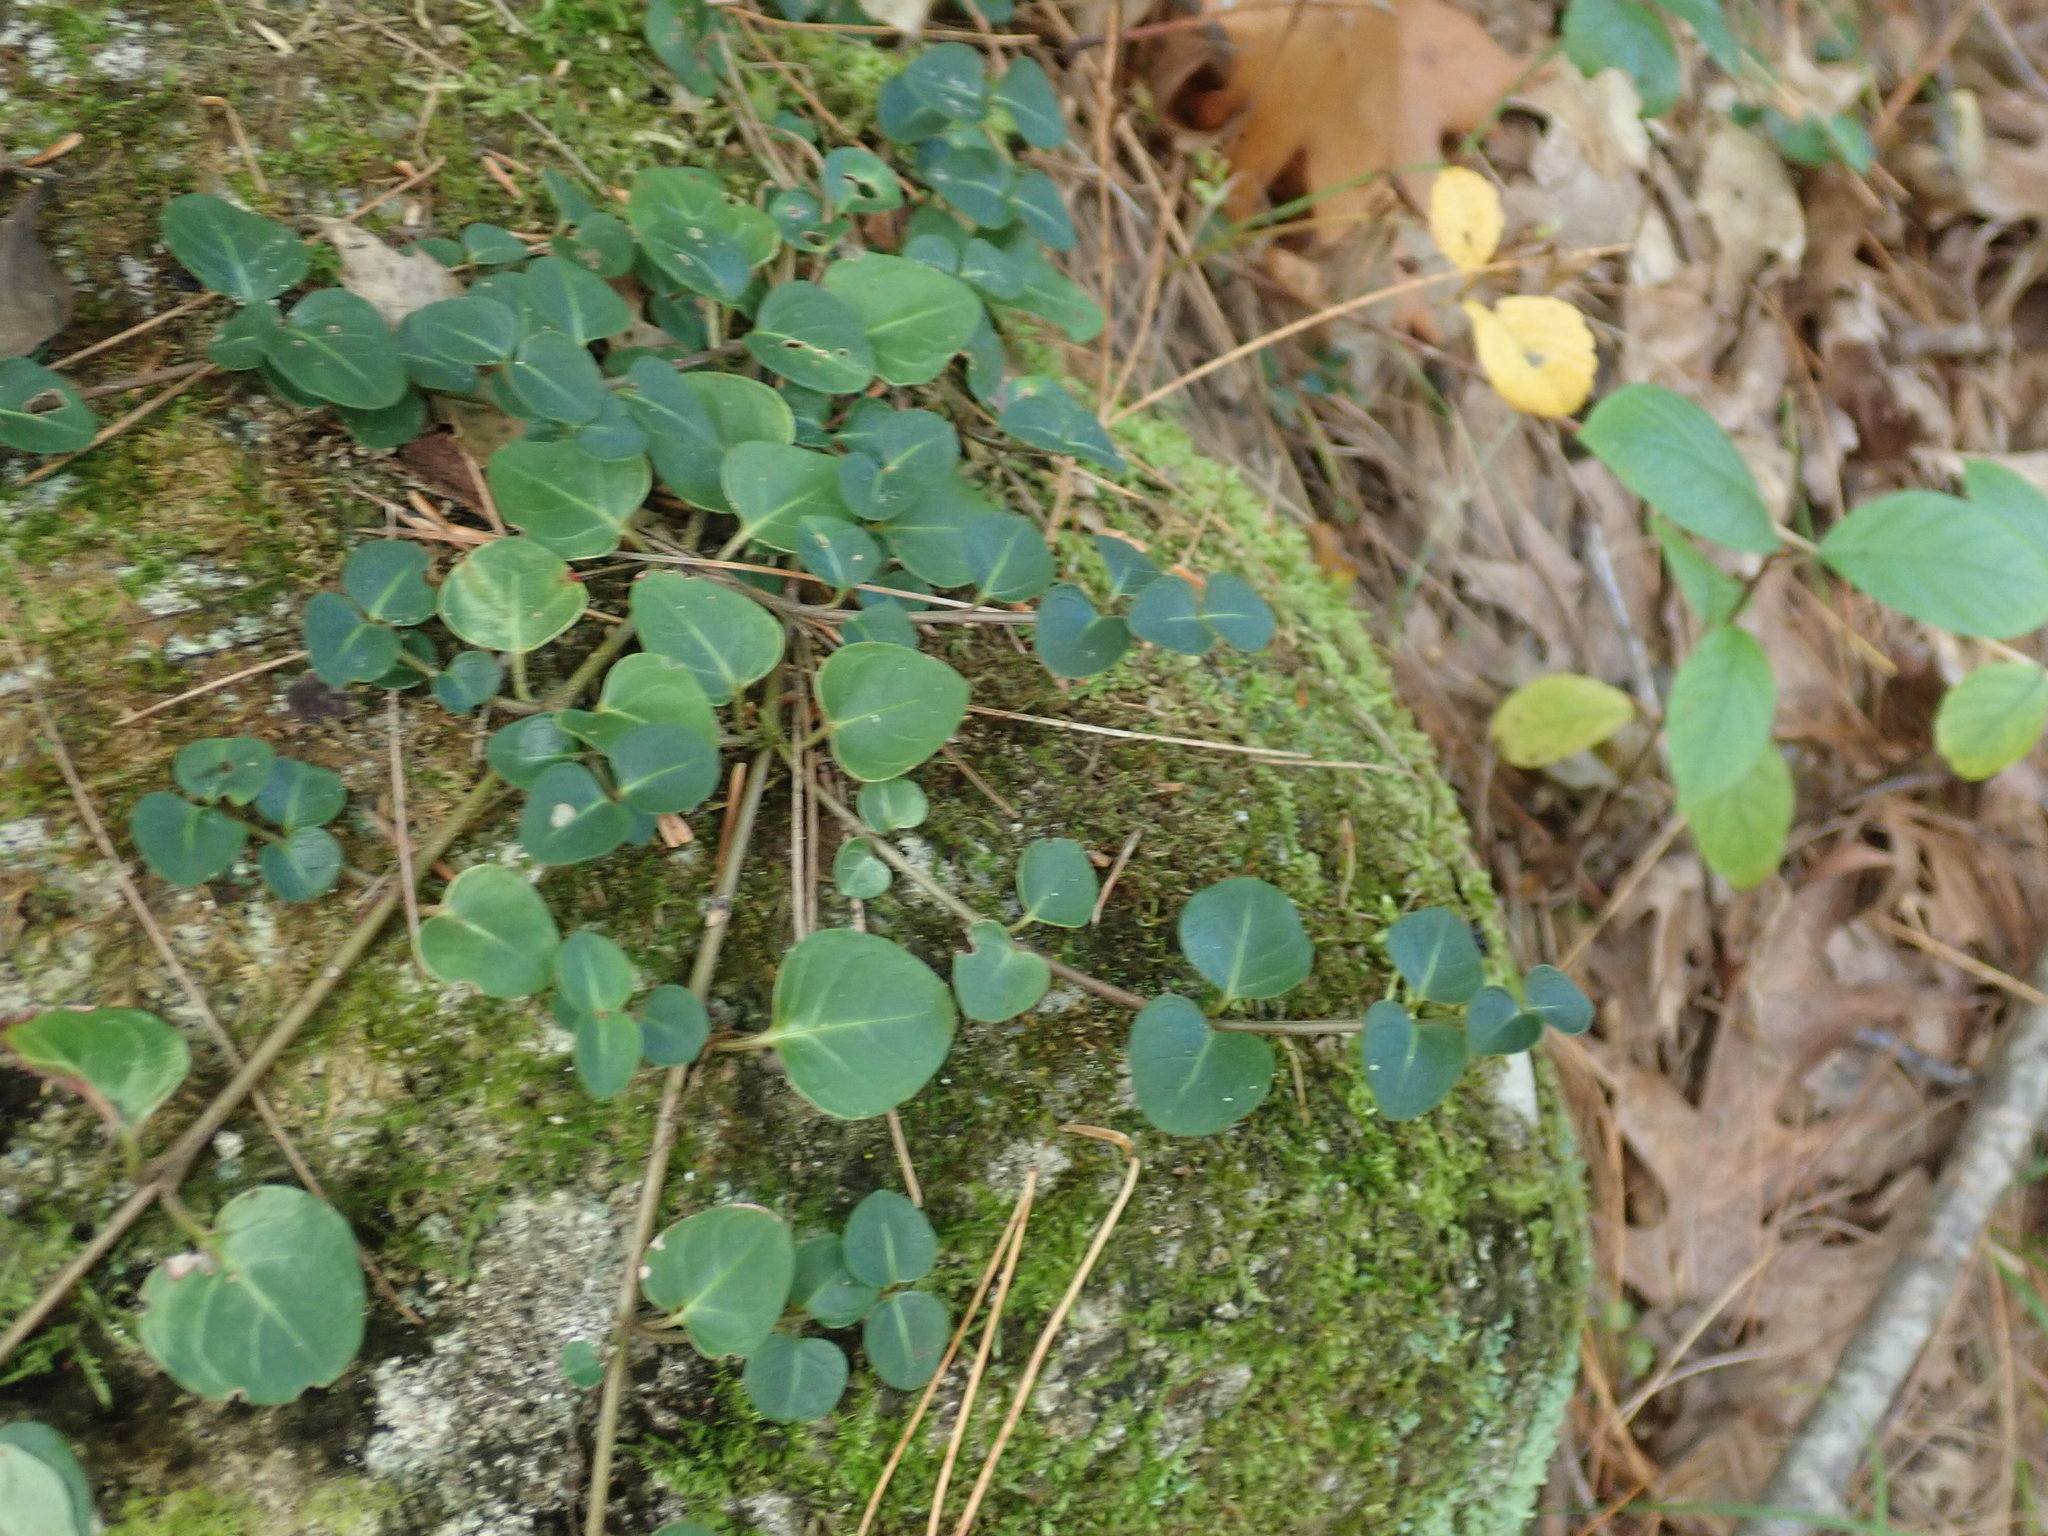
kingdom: Plantae
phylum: Tracheophyta
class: Magnoliopsida
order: Gentianales
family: Rubiaceae
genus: Mitchella
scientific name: Mitchella repens
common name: Partridge-berry
